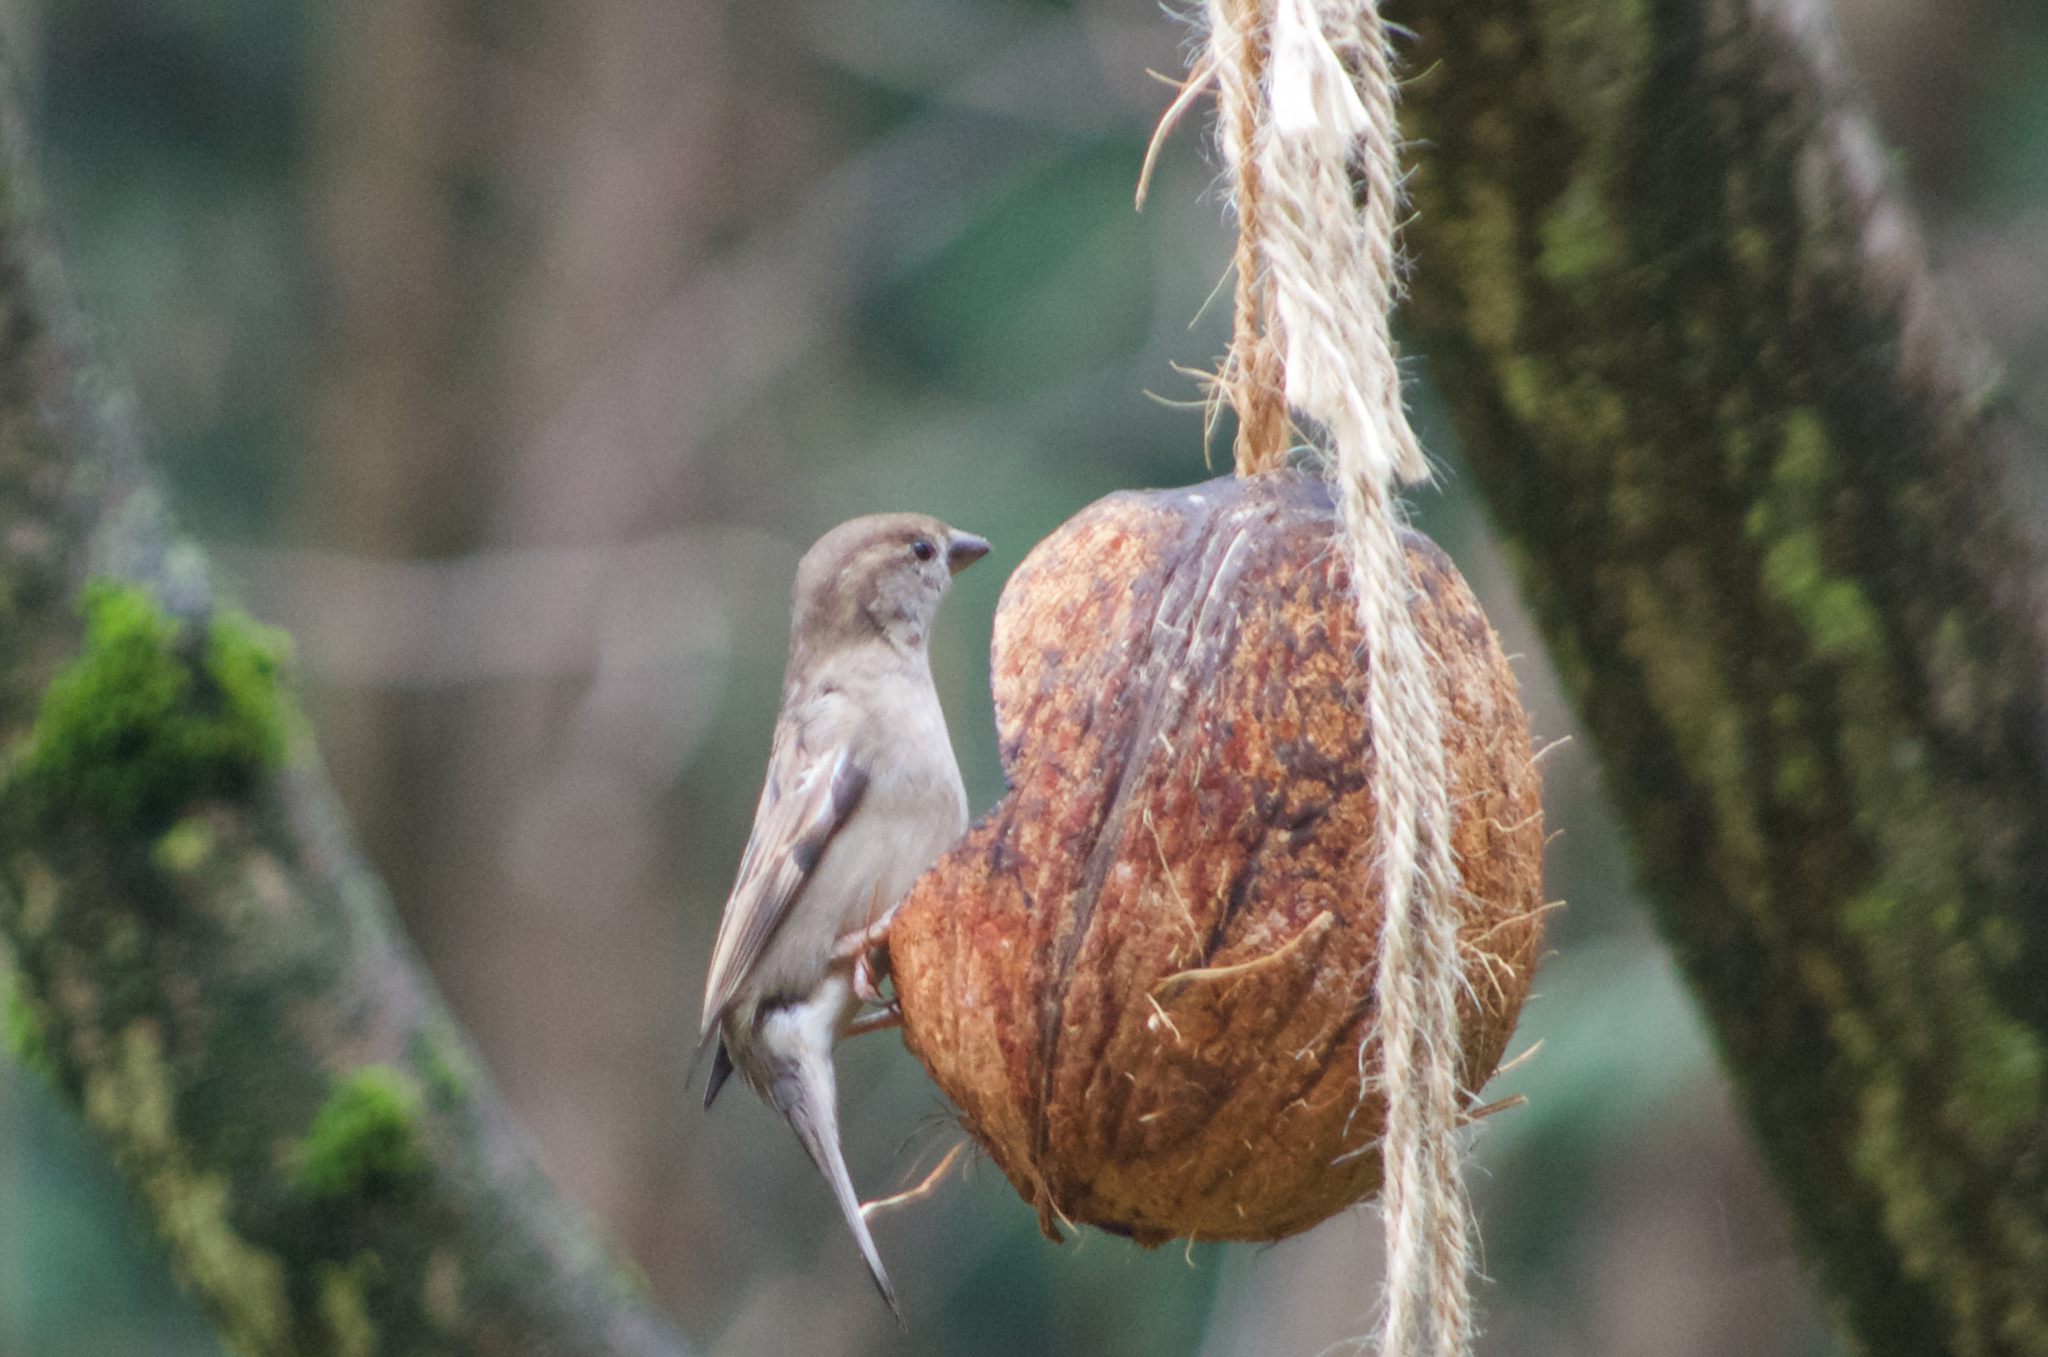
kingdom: Animalia
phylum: Chordata
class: Aves
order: Passeriformes
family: Passeridae
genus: Passer
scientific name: Passer domesticus
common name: House sparrow
